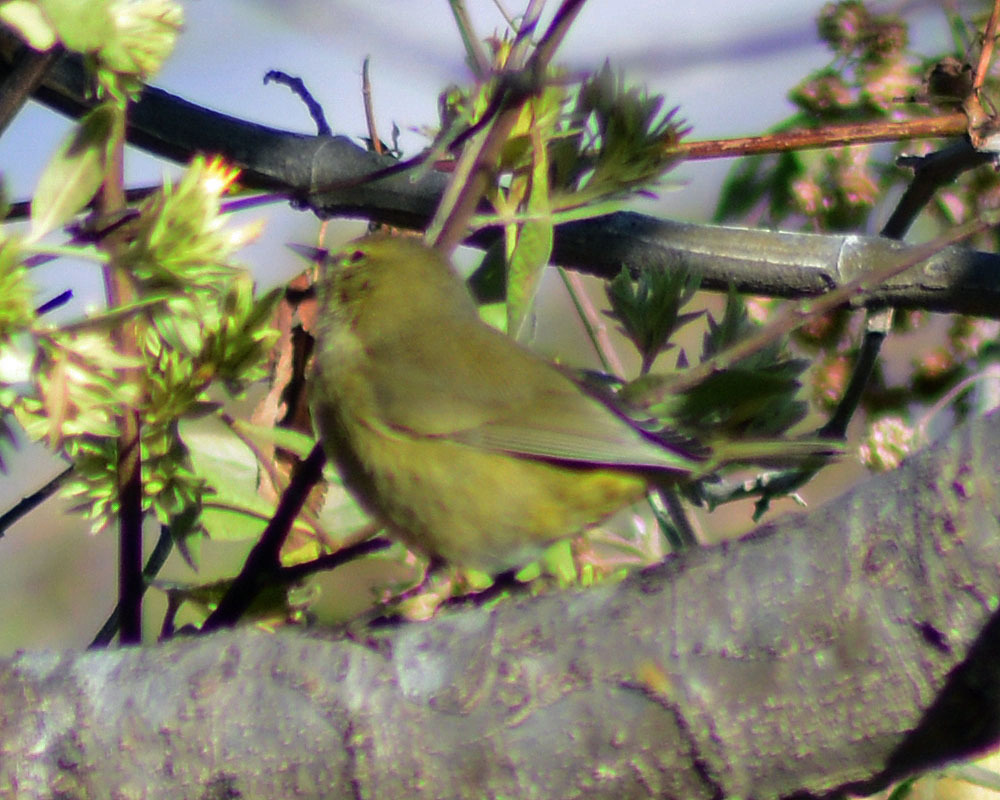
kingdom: Animalia
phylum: Chordata
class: Aves
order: Passeriformes
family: Parulidae
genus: Leiothlypis
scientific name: Leiothlypis celata
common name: Orange-crowned warbler
